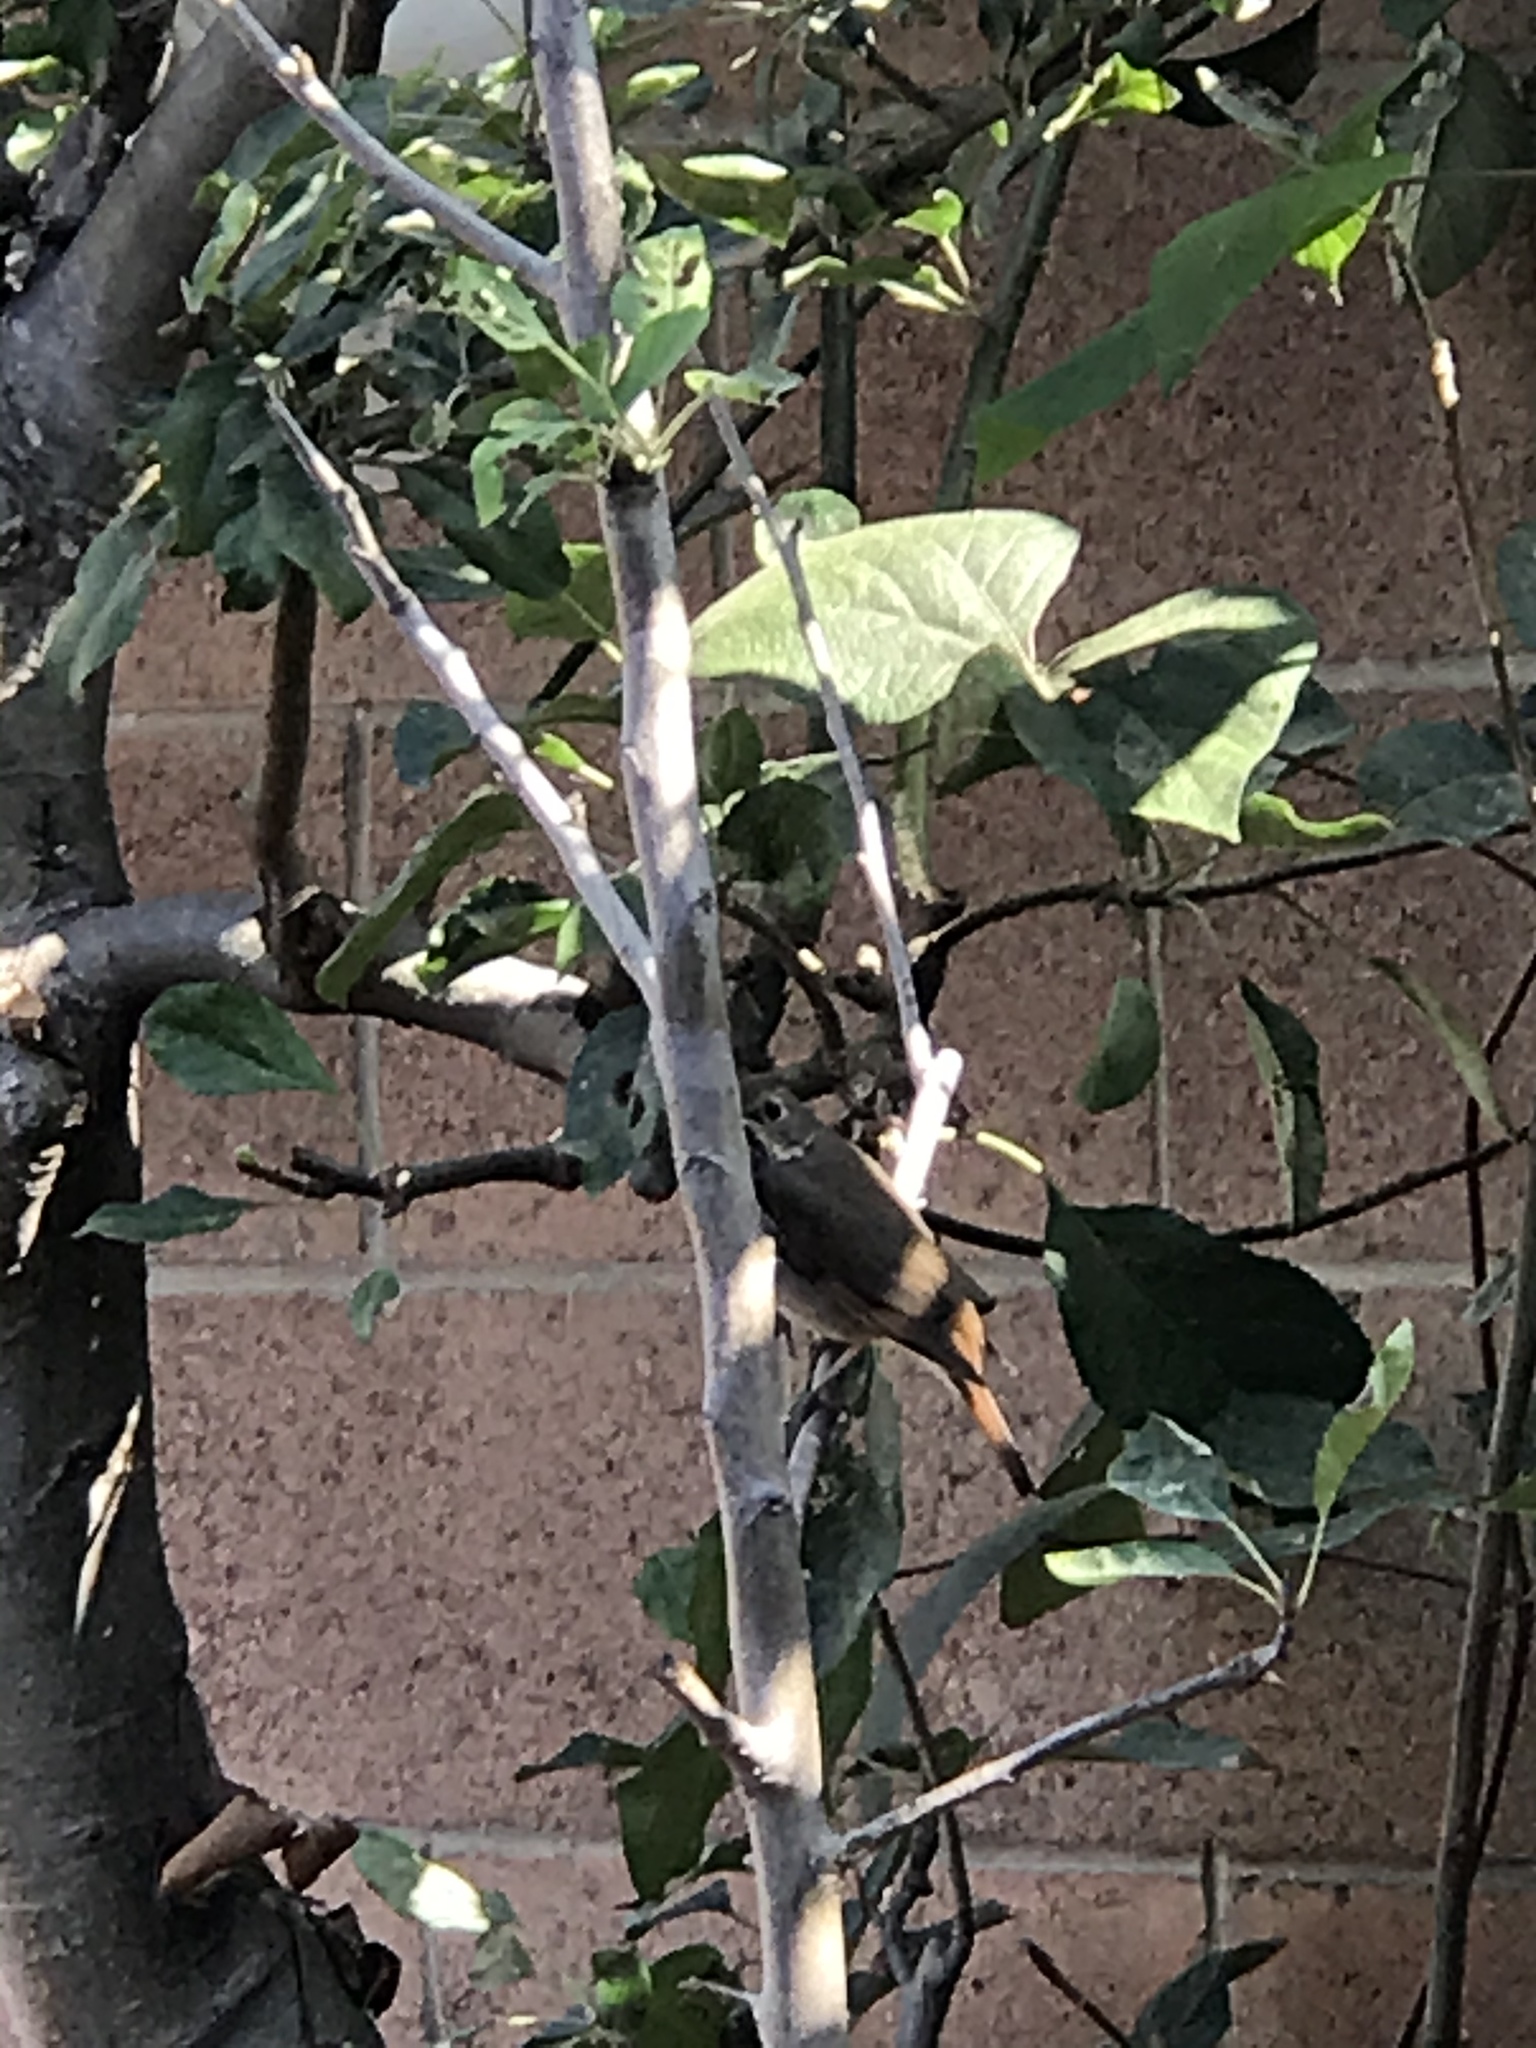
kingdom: Animalia
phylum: Chordata
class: Aves
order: Passeriformes
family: Turdidae
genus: Catharus
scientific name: Catharus guttatus
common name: Hermit thrush
